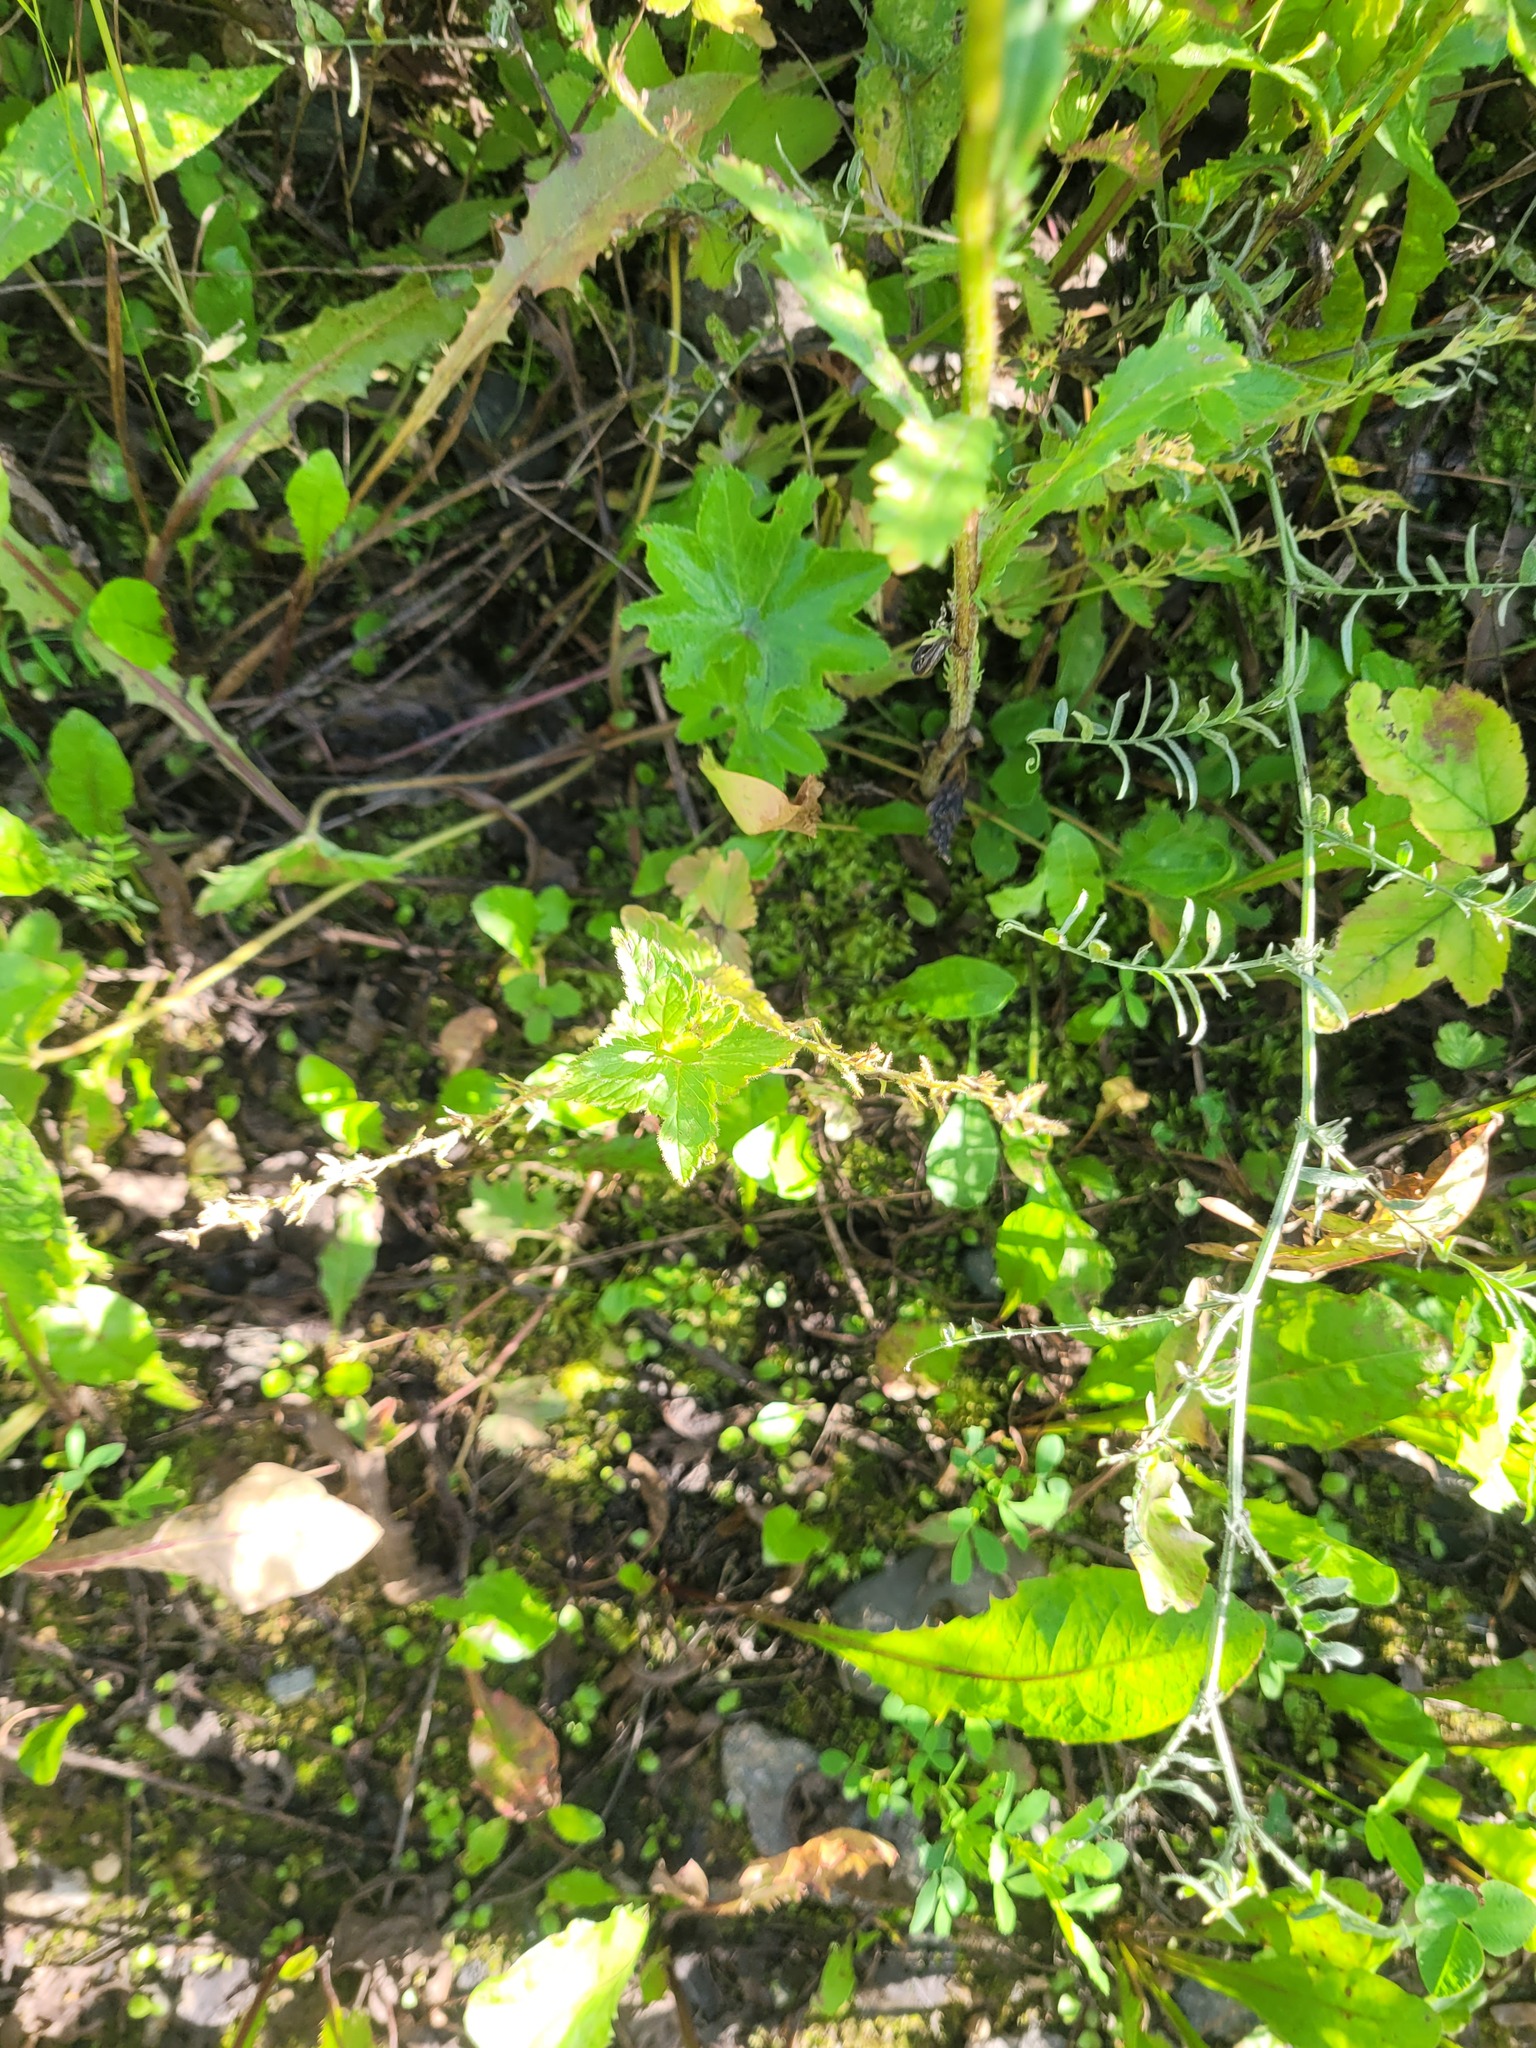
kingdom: Plantae
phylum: Tracheophyta
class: Magnoliopsida
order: Lamiales
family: Plantaginaceae
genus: Veronica
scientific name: Veronica chamaedrys
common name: Germander speedwell
